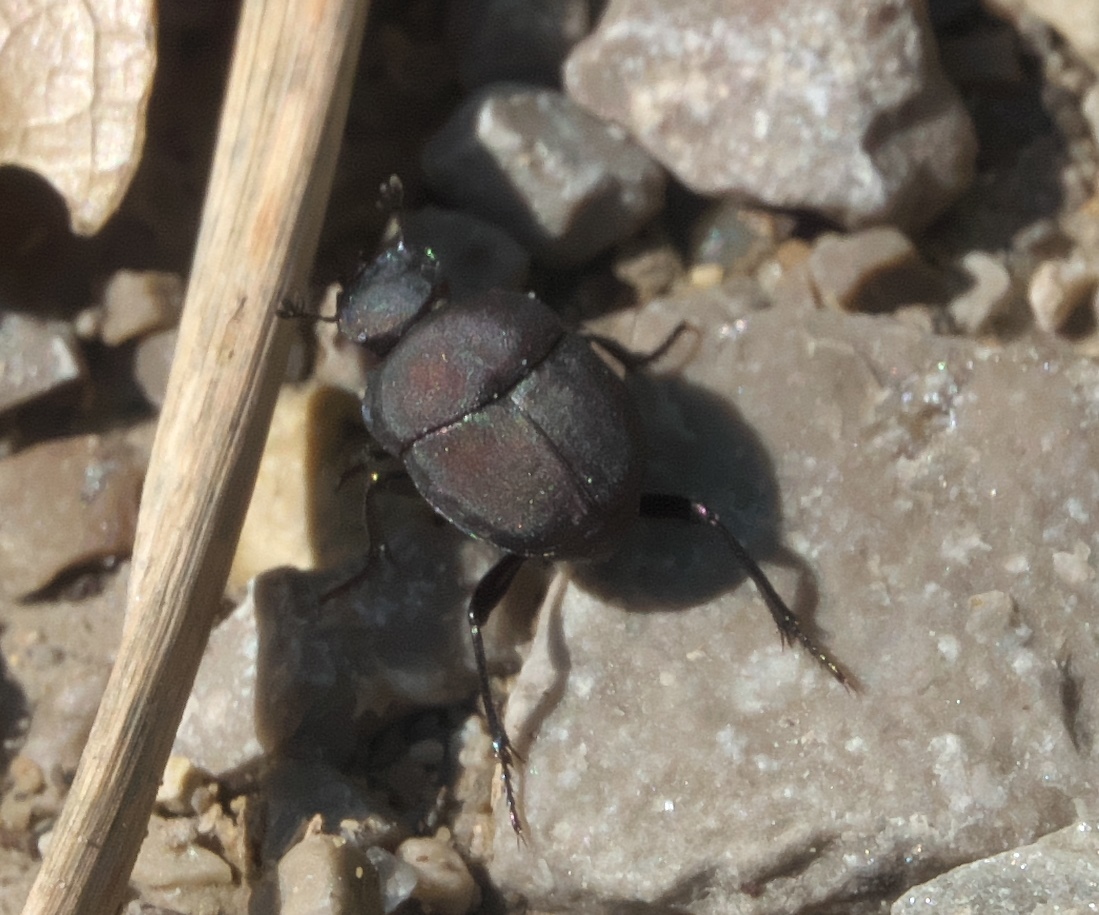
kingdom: Animalia
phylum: Arthropoda
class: Insecta
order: Coleoptera
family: Scarabaeidae
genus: Melanocanthon
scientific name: Melanocanthon nigricornis
